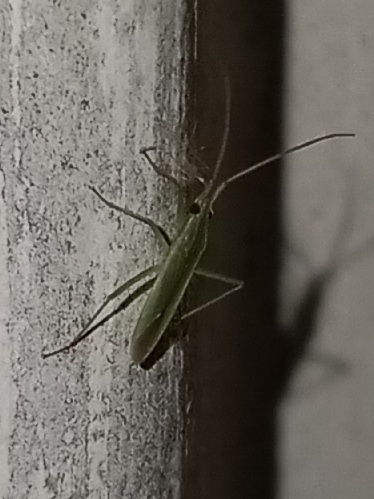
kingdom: Animalia
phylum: Arthropoda
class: Insecta
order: Hemiptera
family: Miridae
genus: Trigonotylus
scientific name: Trigonotylus caelestialium
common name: Rice leaf bug
